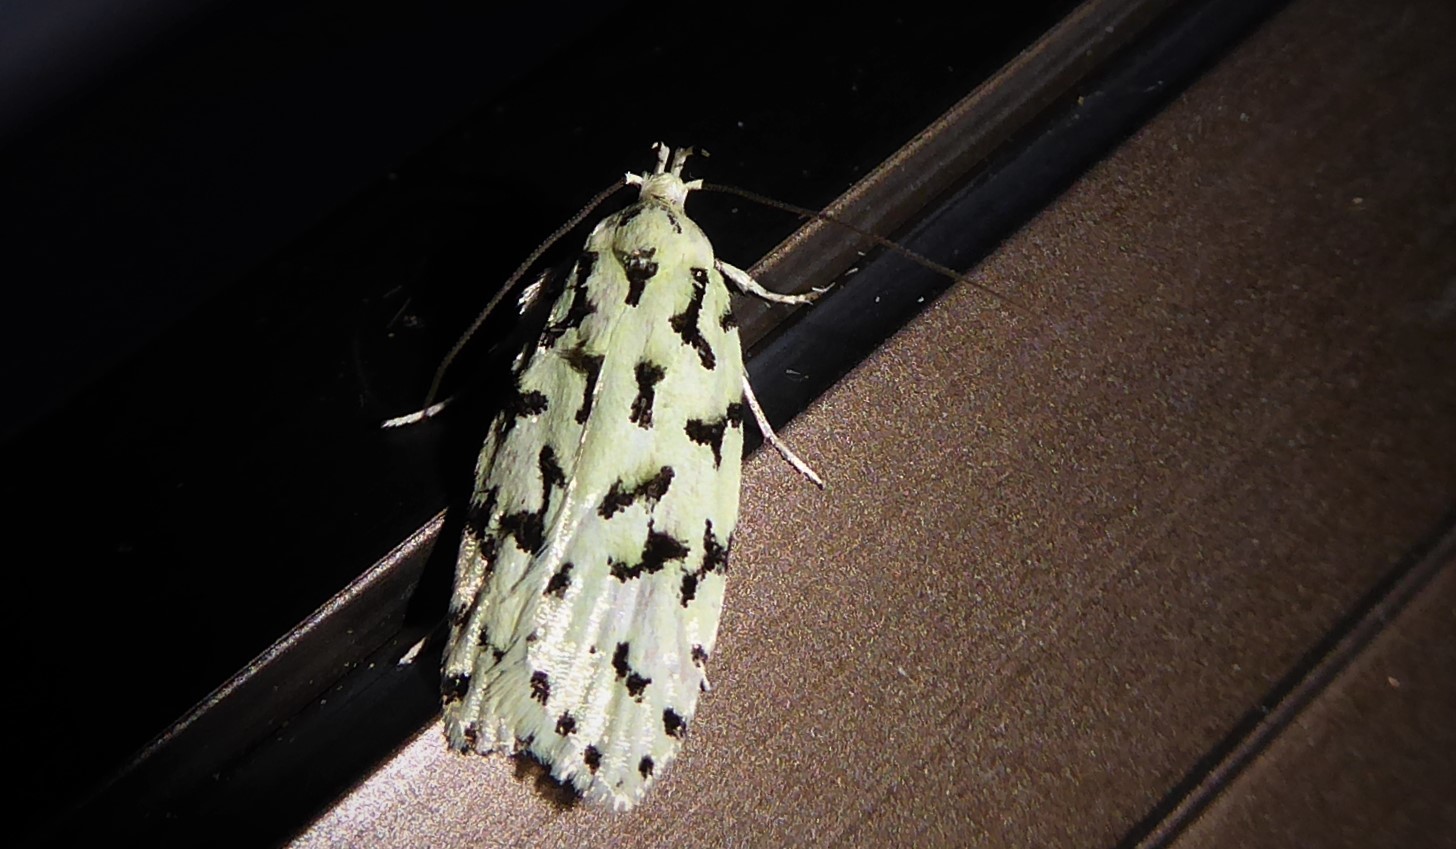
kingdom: Animalia
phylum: Arthropoda
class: Insecta
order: Lepidoptera
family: Oecophoridae
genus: Izatha
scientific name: Izatha huttoni
